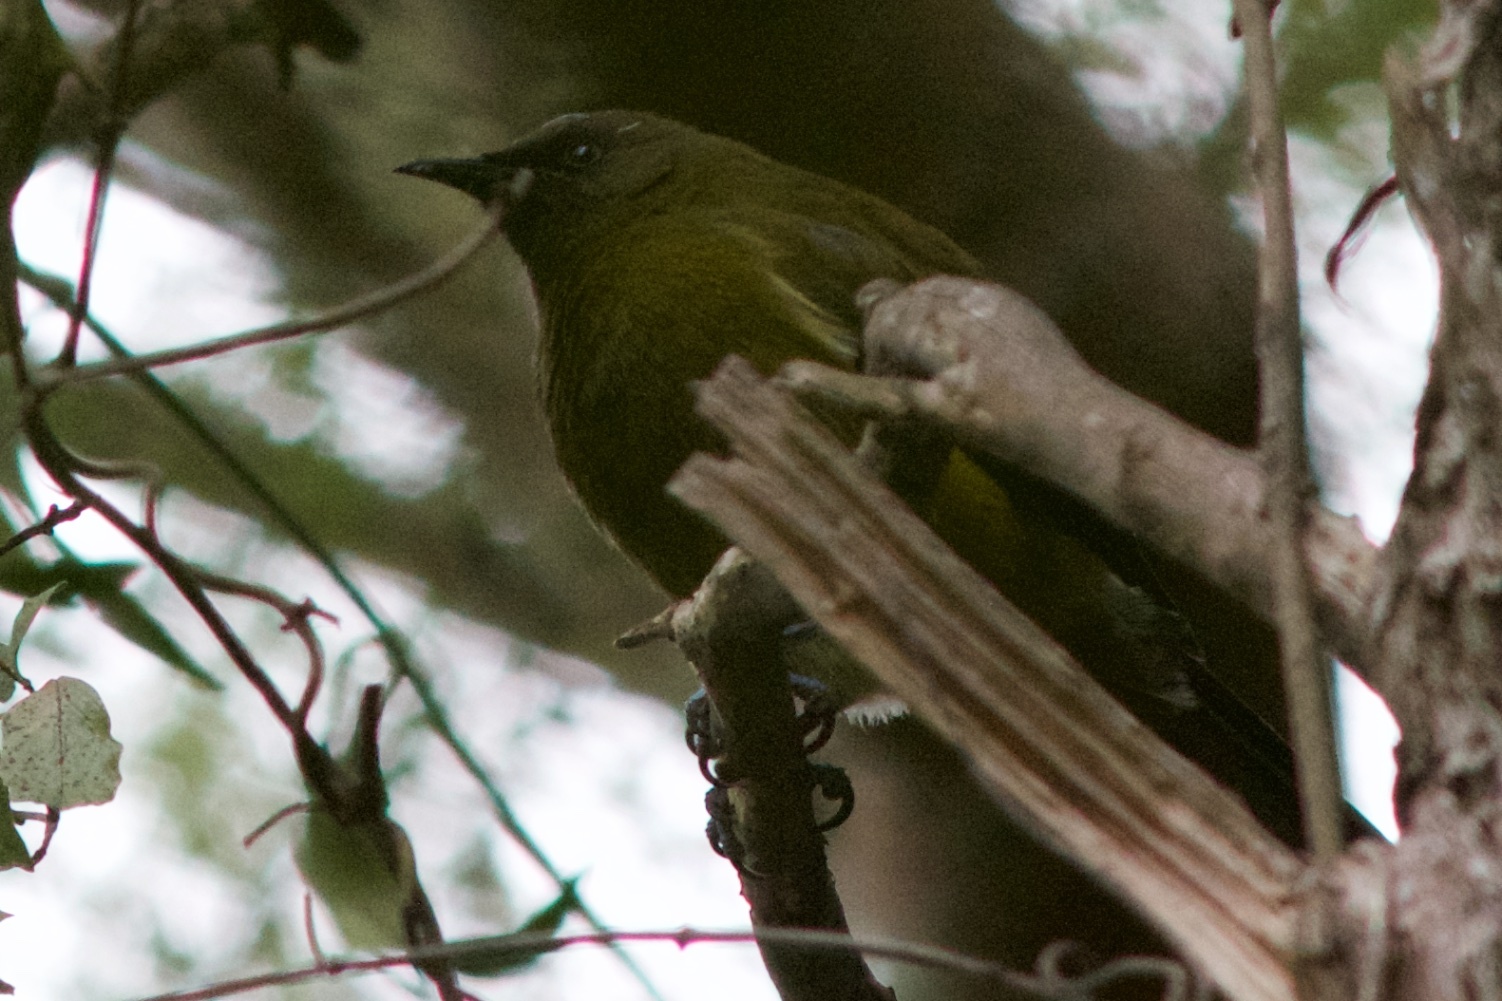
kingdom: Animalia
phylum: Chordata
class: Aves
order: Passeriformes
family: Meliphagidae
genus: Anthornis
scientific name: Anthornis melanura
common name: New zealand bellbird
